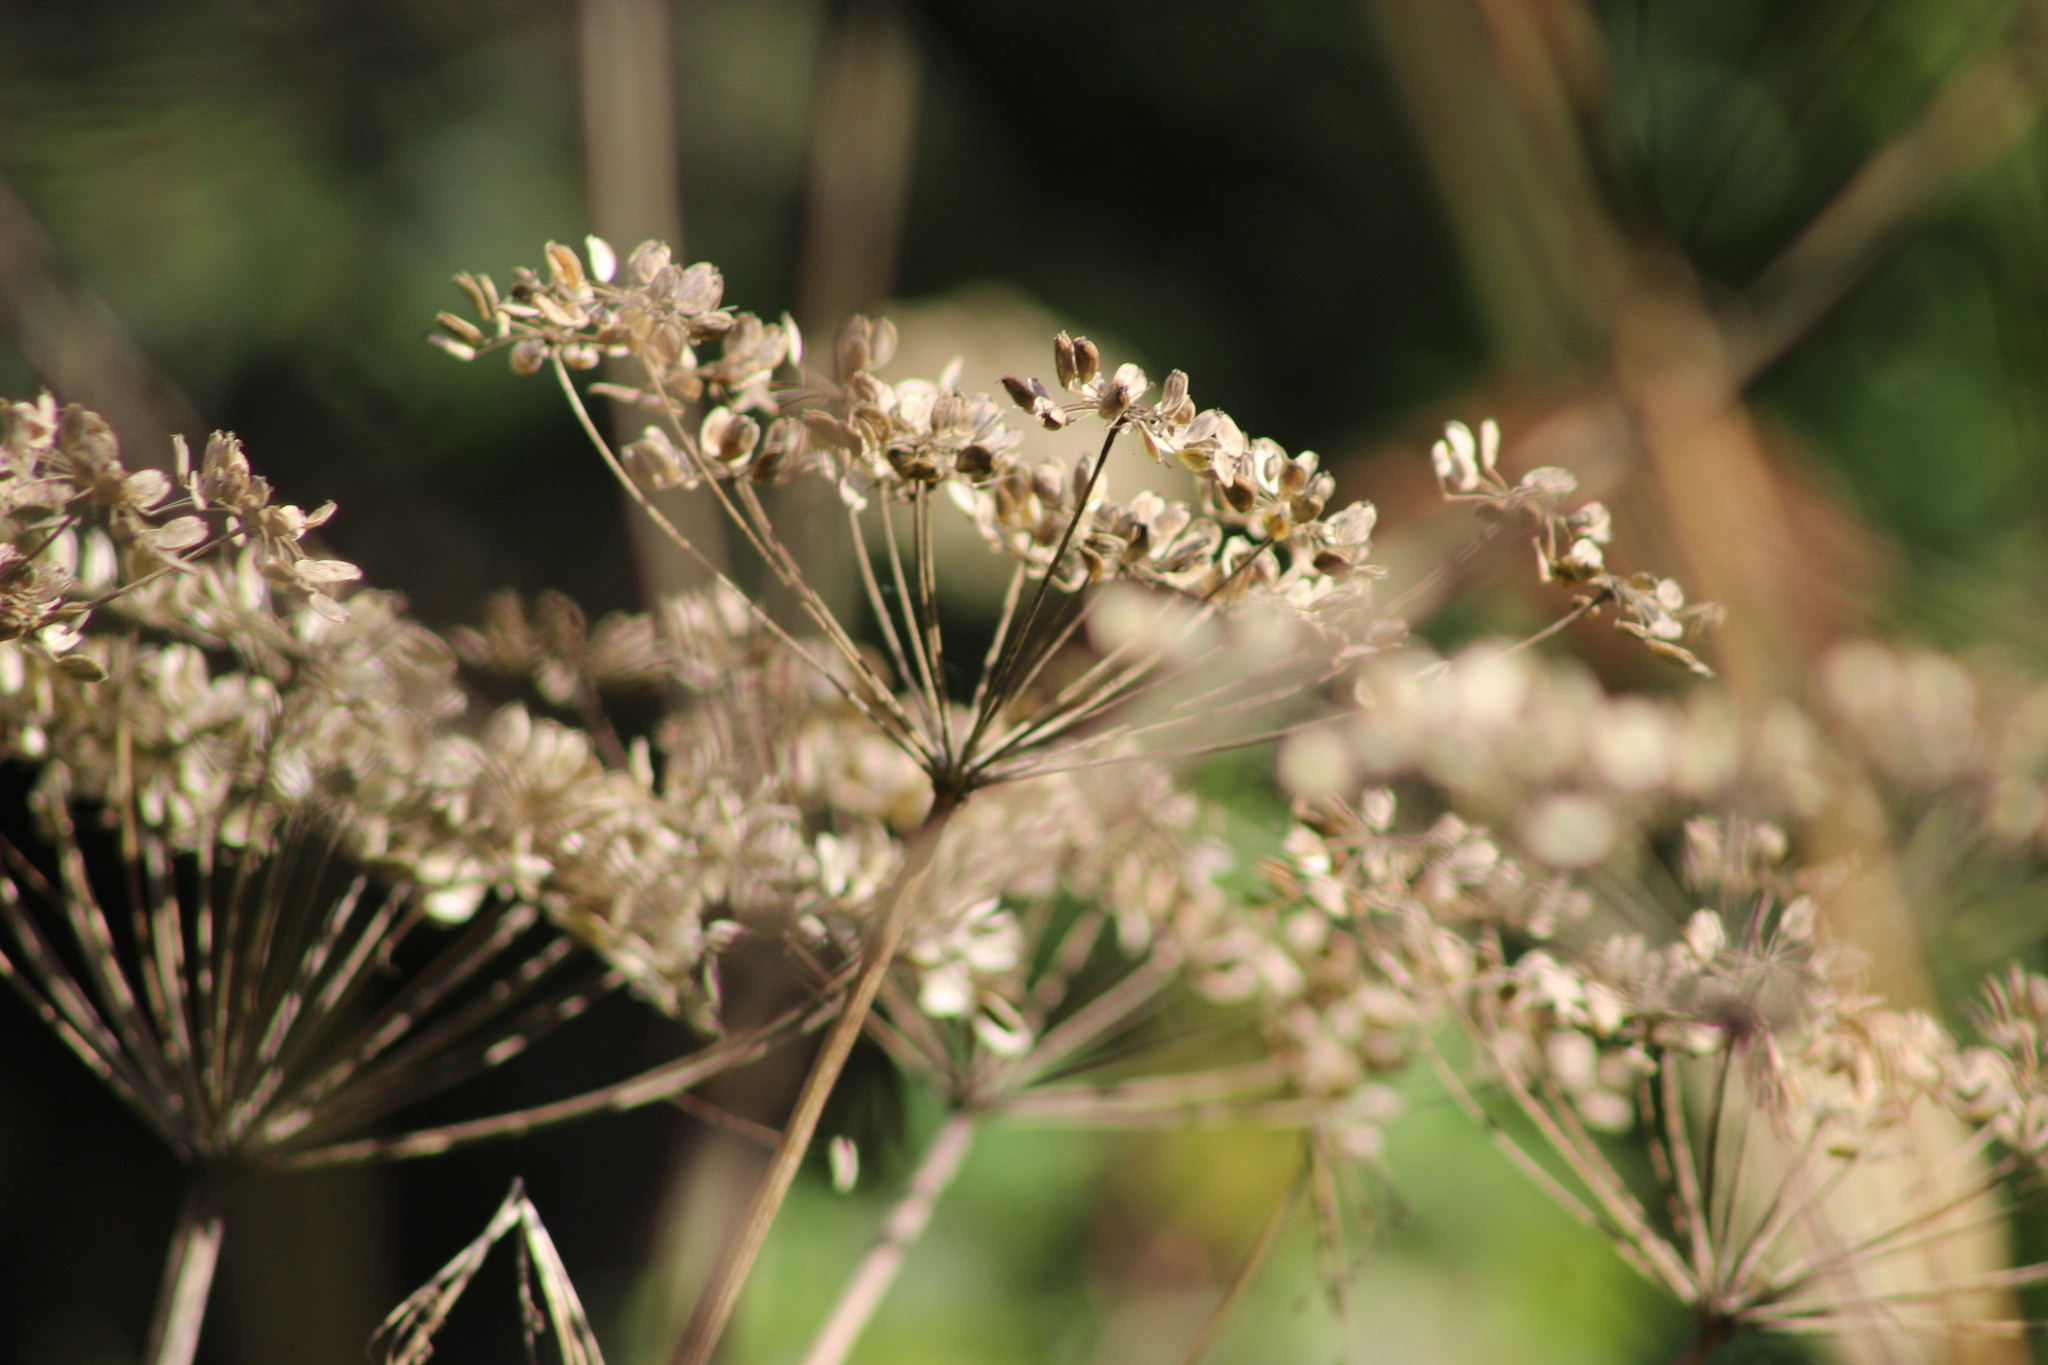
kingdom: Plantae
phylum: Tracheophyta
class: Magnoliopsida
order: Apiales
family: Apiaceae
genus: Heracleum
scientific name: Heracleum sphondylium
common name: Hogweed
